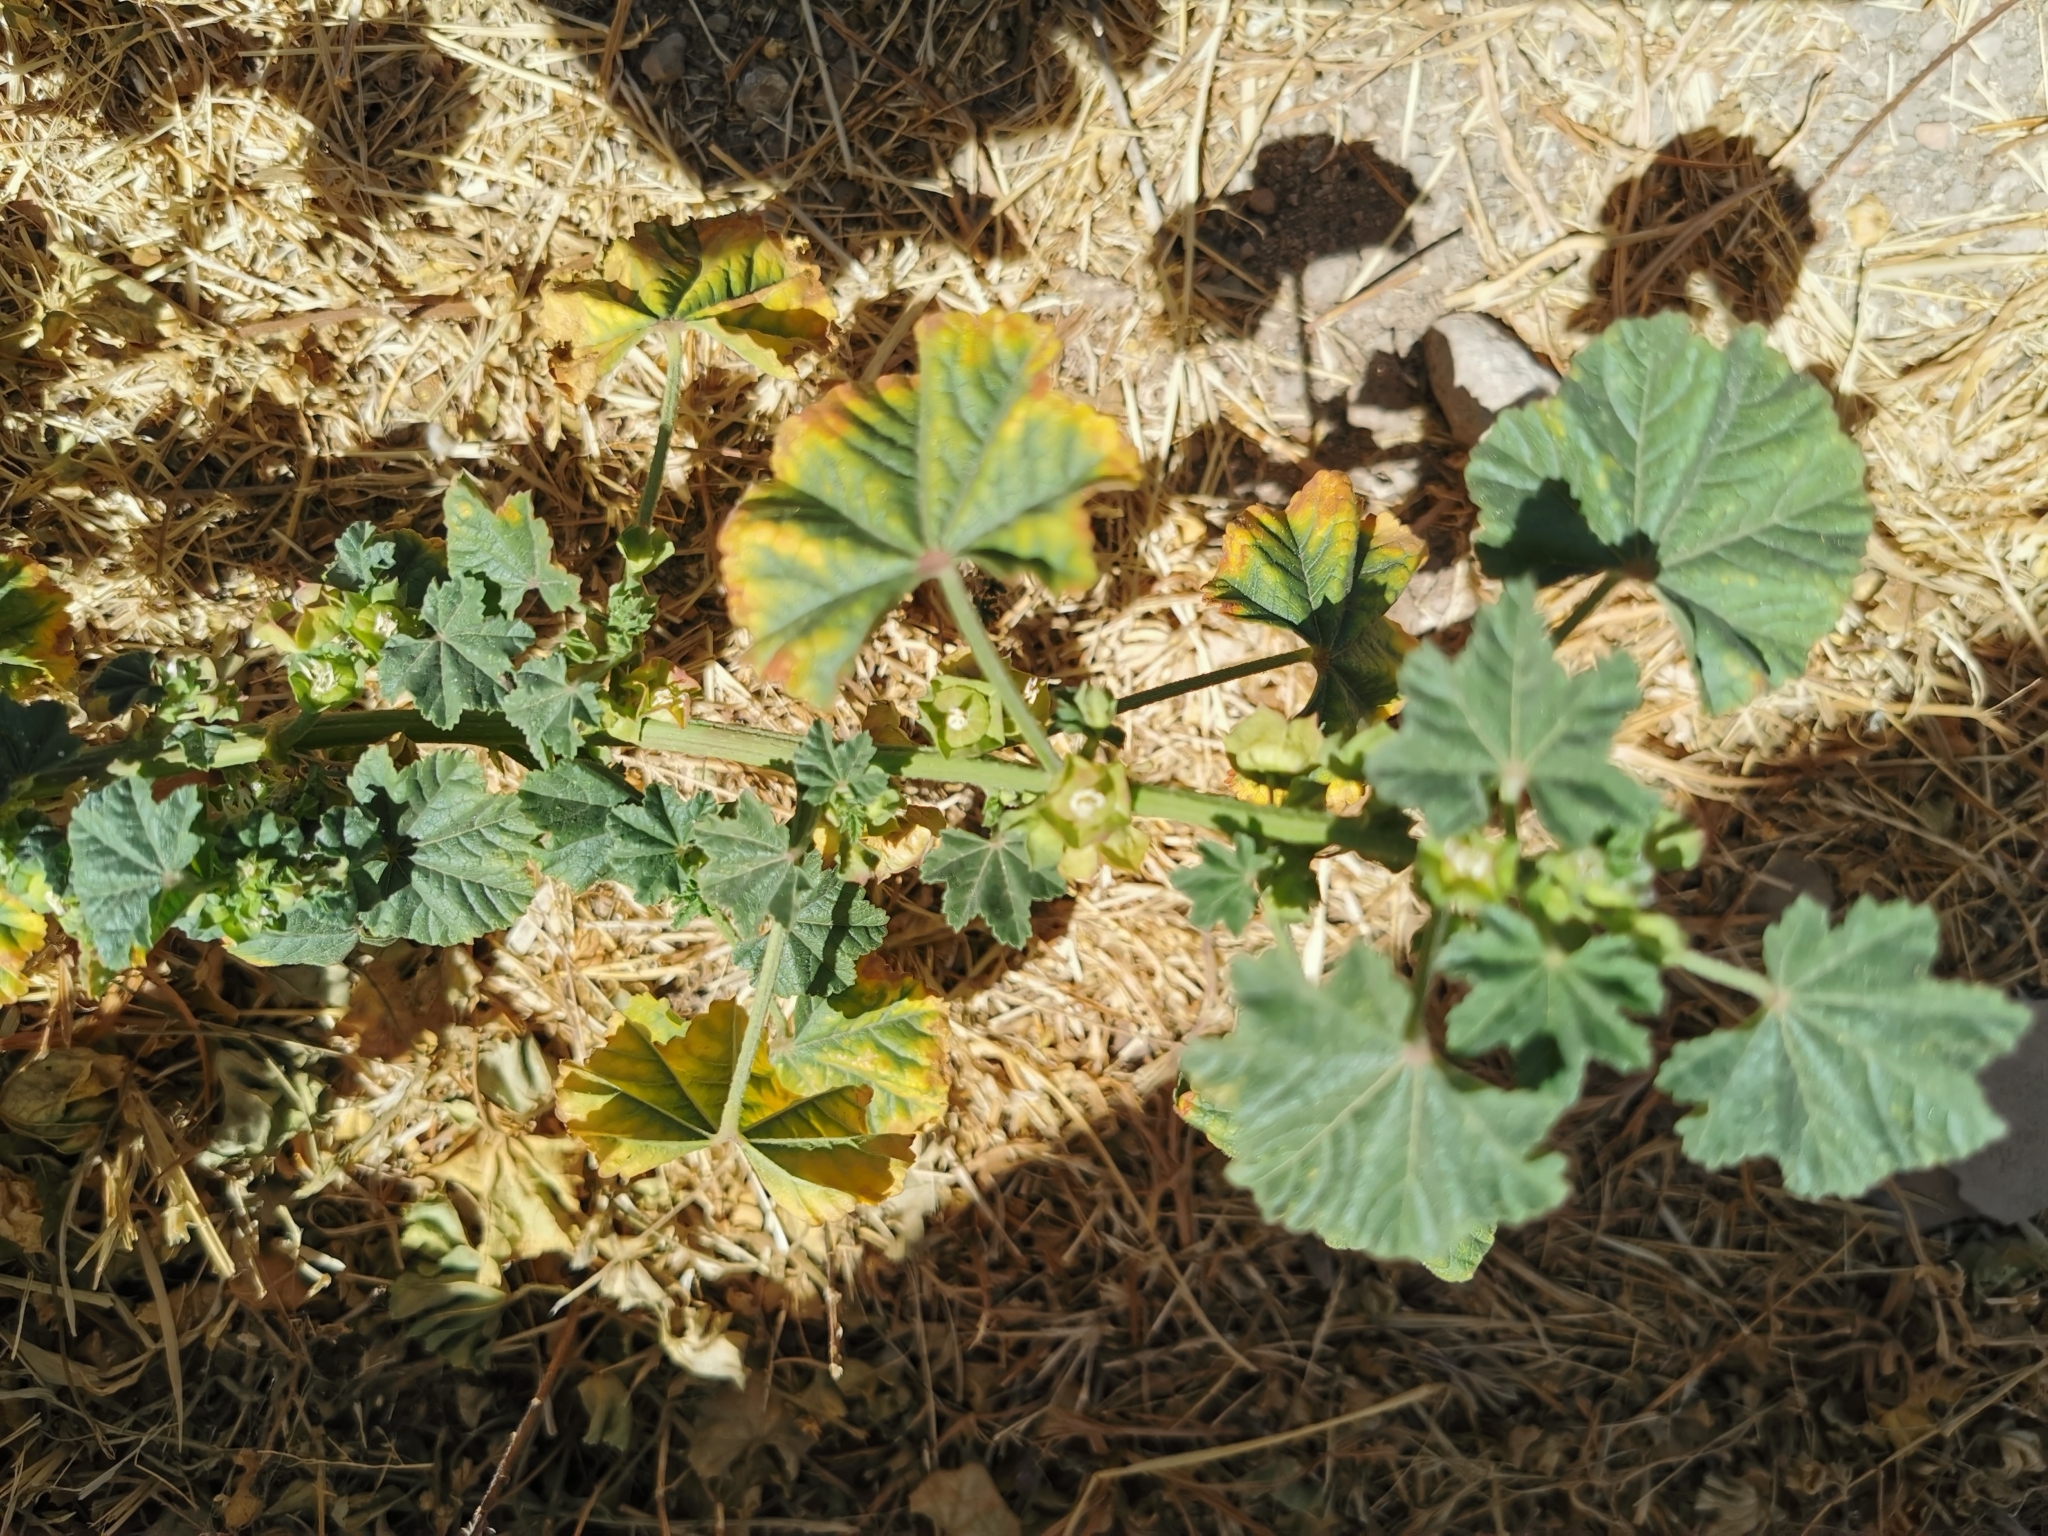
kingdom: Plantae
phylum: Tracheophyta
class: Magnoliopsida
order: Malvales
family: Malvaceae
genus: Malva
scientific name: Malva parviflora
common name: Least mallow
